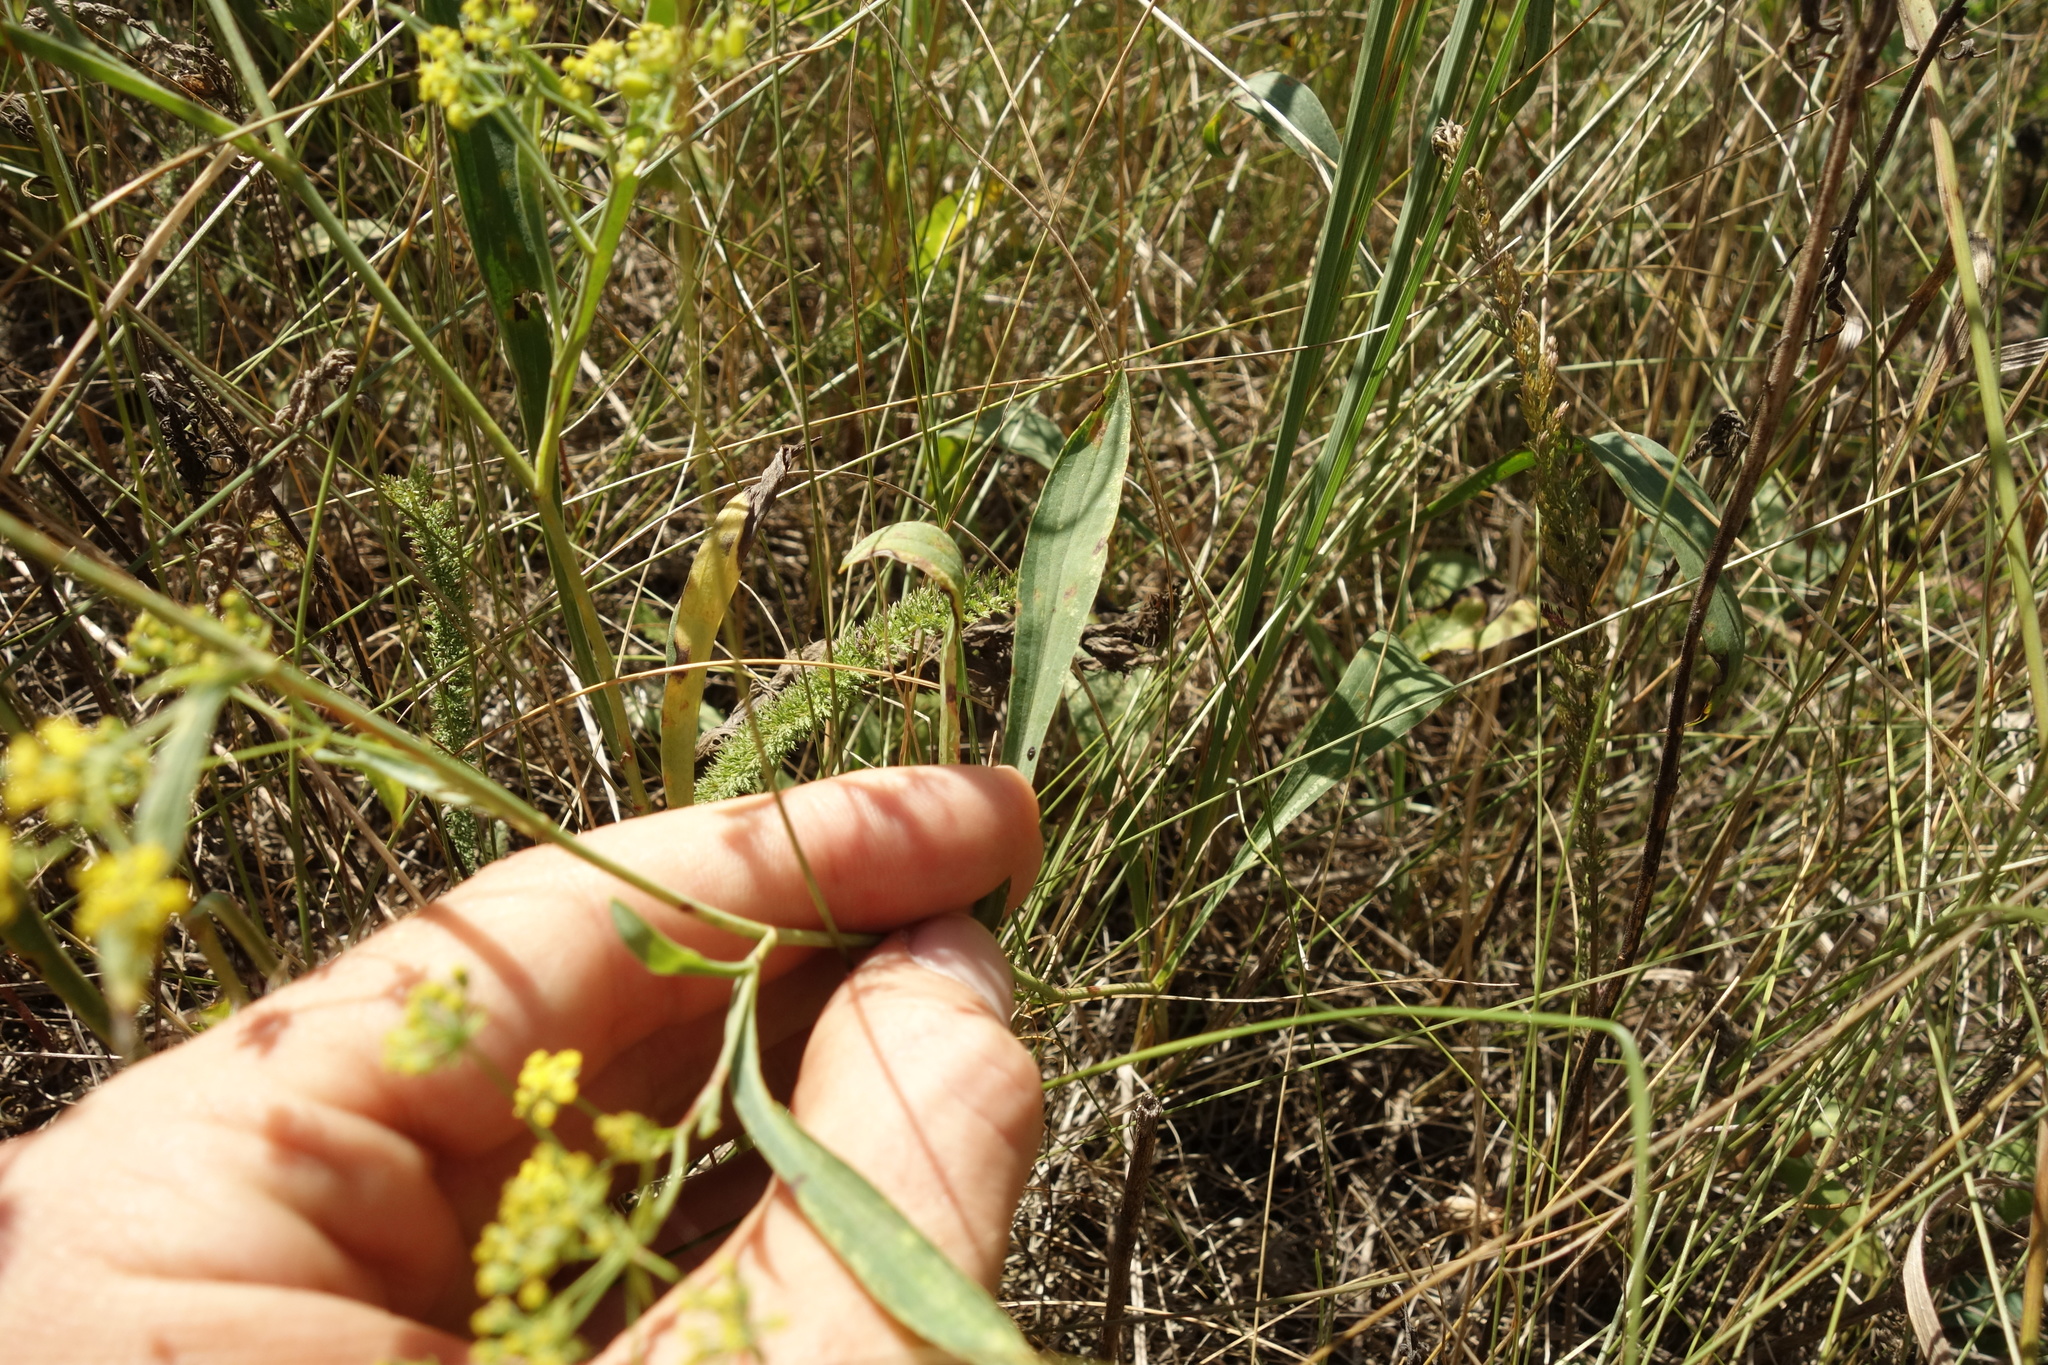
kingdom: Plantae
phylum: Tracheophyta
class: Magnoliopsida
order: Apiales
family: Apiaceae
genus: Bupleurum
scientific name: Bupleurum falcatum
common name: Sickle-leaved hare's-ear
